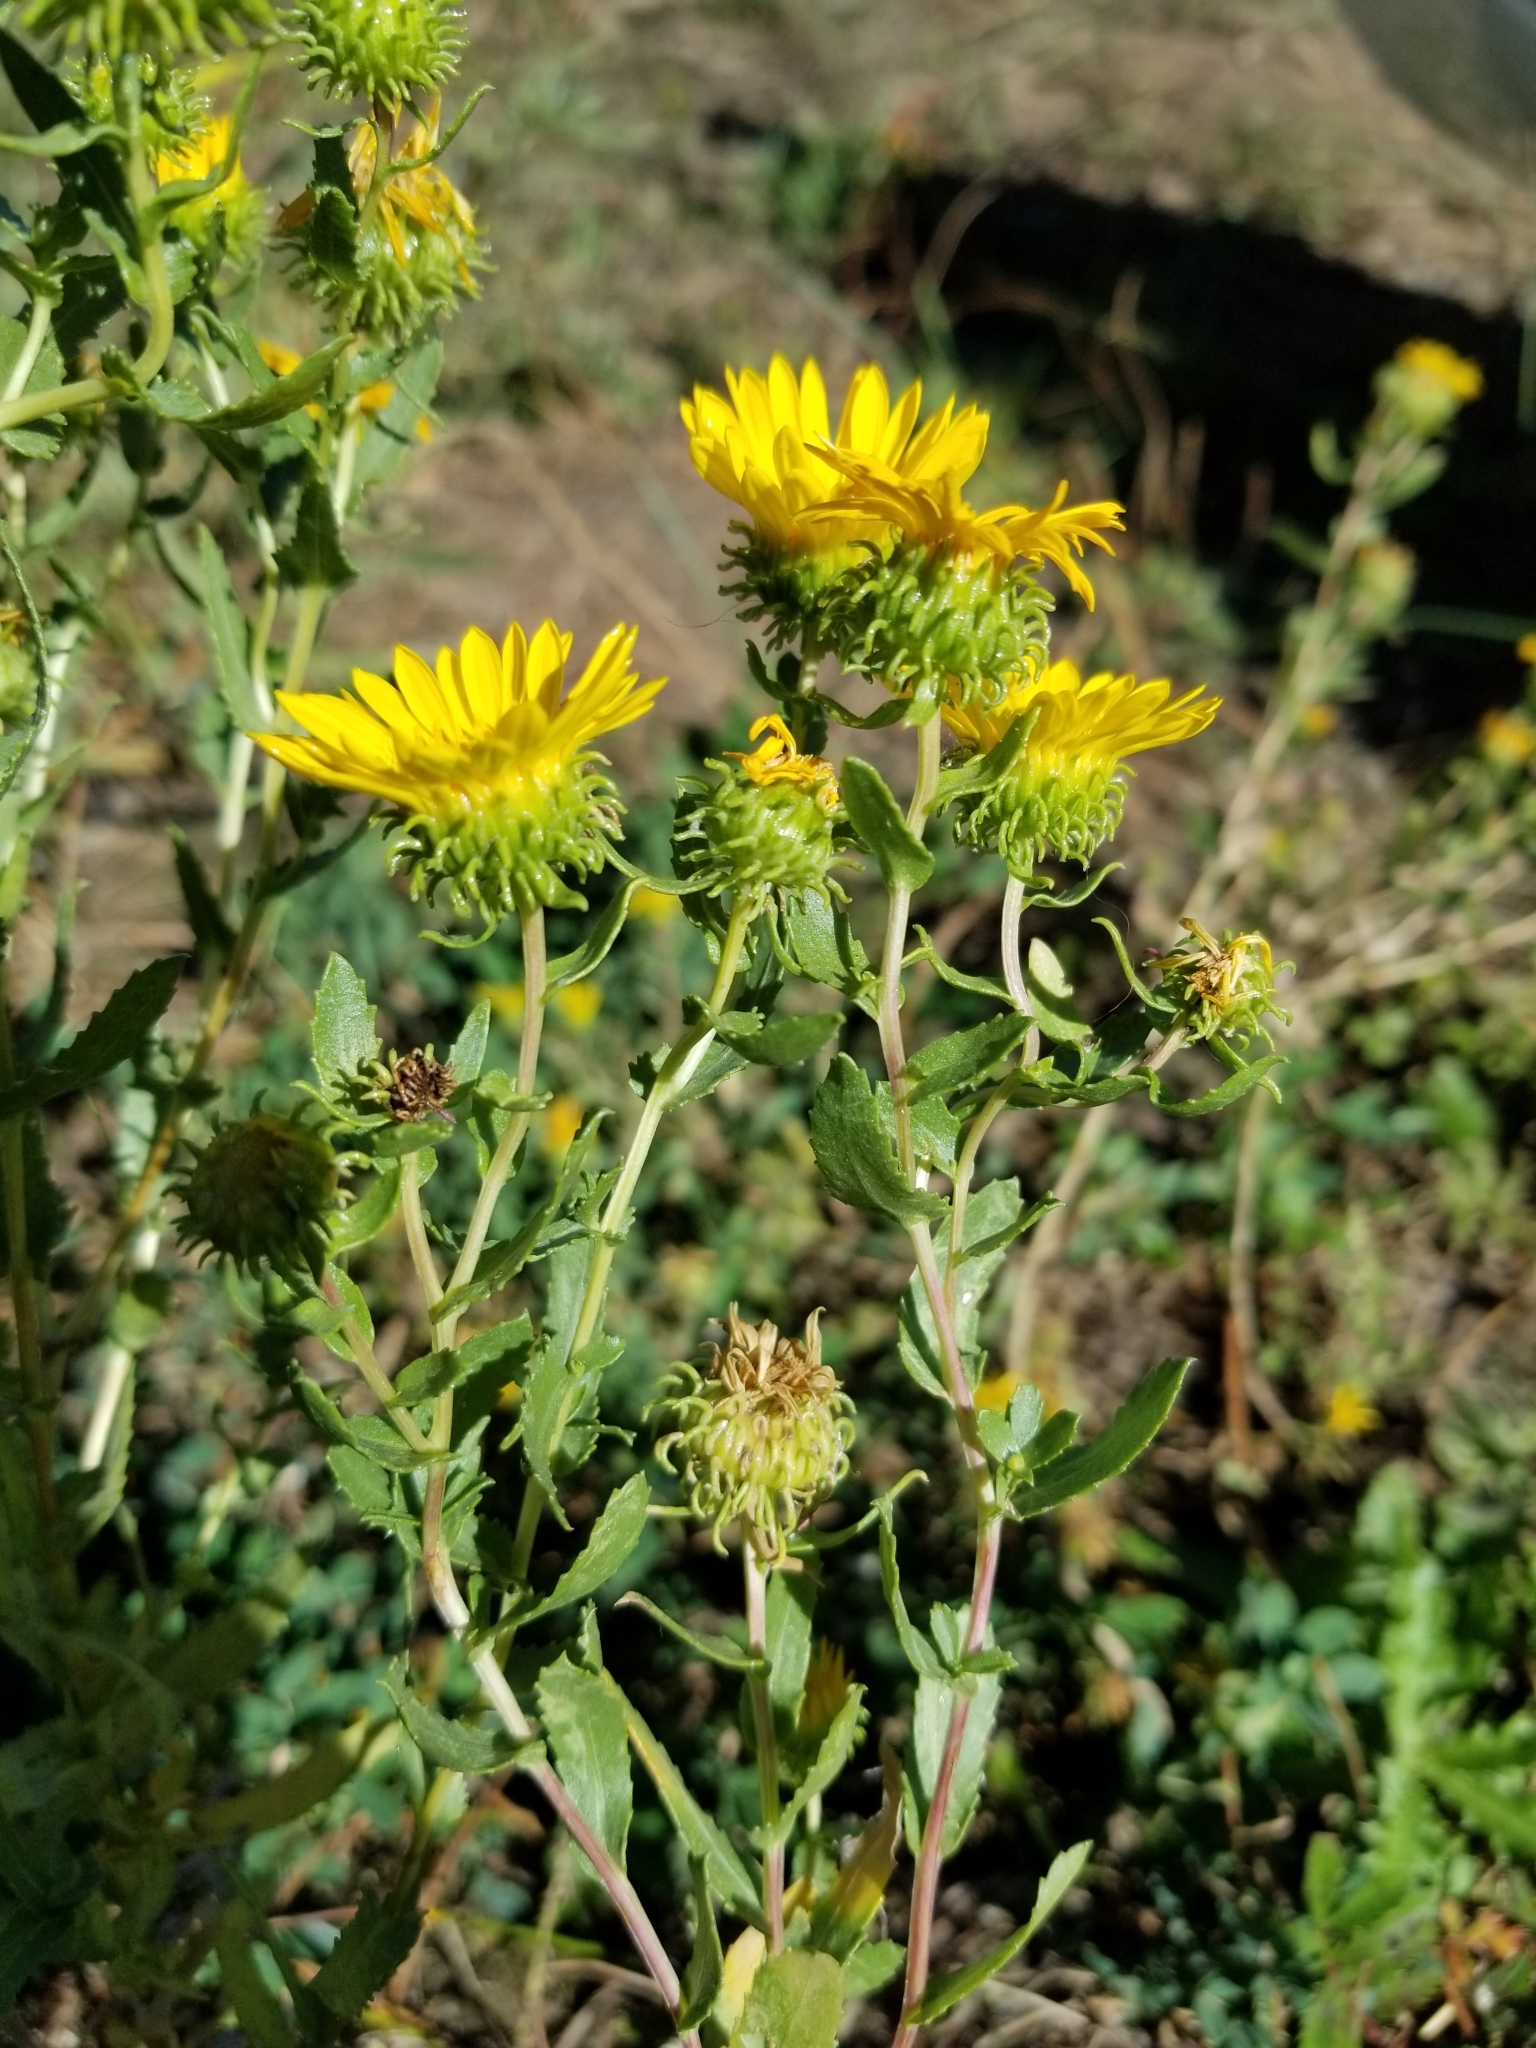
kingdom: Plantae
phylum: Tracheophyta
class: Magnoliopsida
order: Asterales
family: Asteraceae
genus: Grindelia
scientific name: Grindelia squarrosa
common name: Curly-cup gumweed
